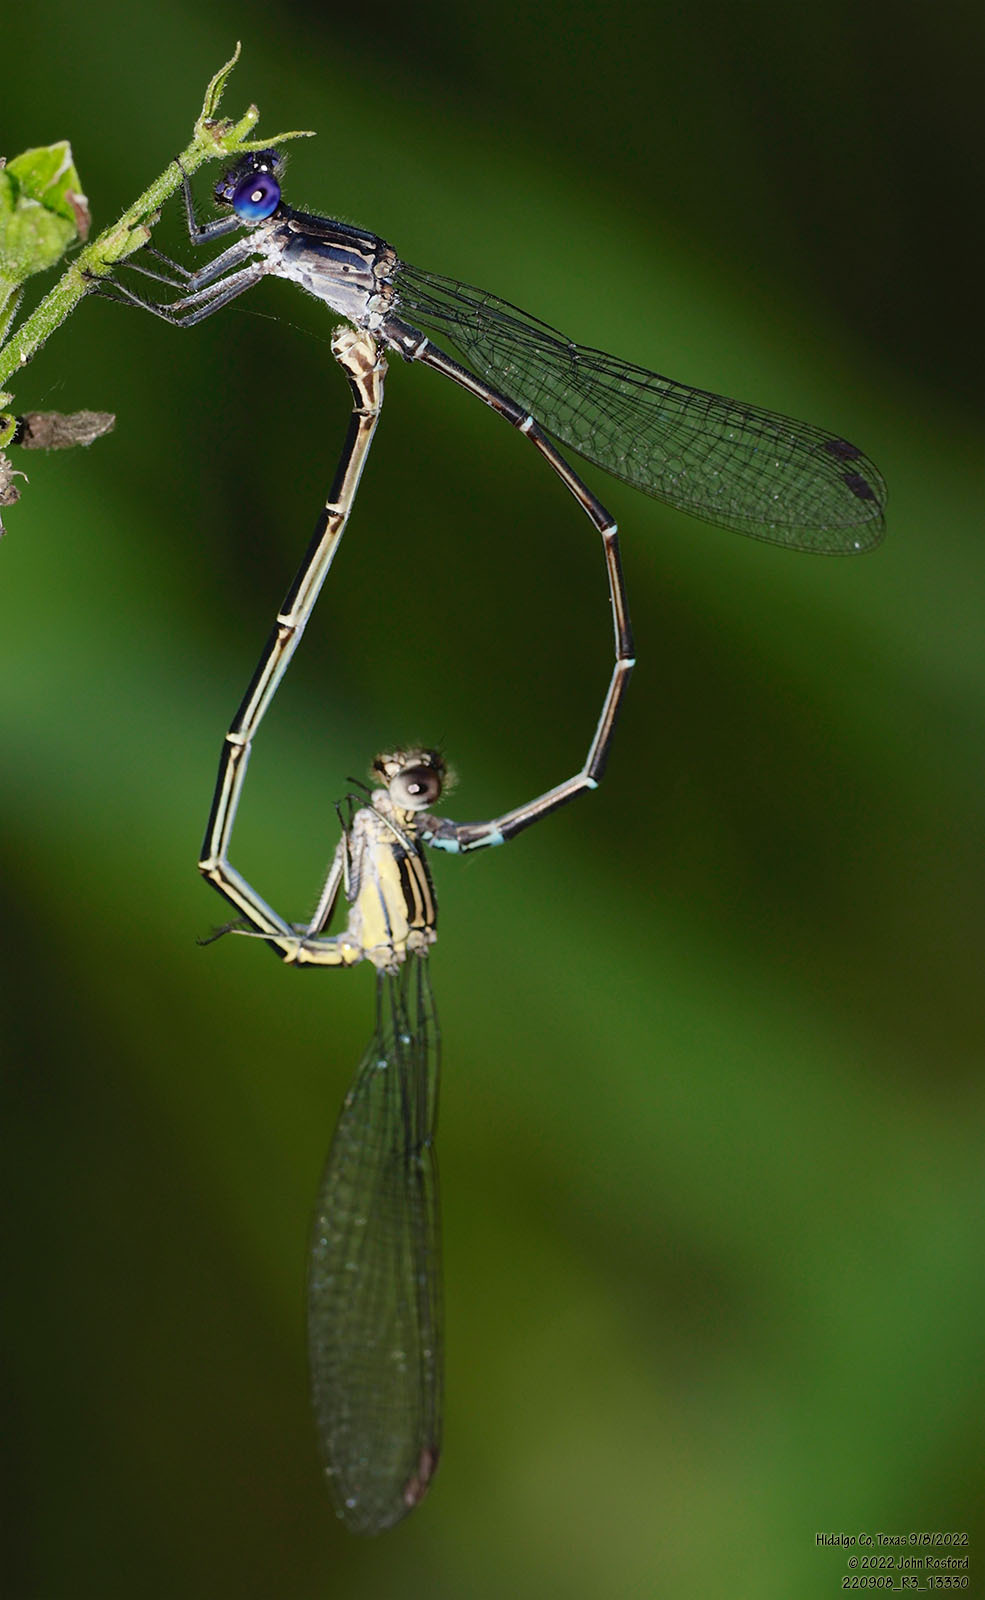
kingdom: Animalia
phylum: Arthropoda
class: Insecta
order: Odonata
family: Coenagrionidae
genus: Argia
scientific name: Argia translata
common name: Dusky dancer
